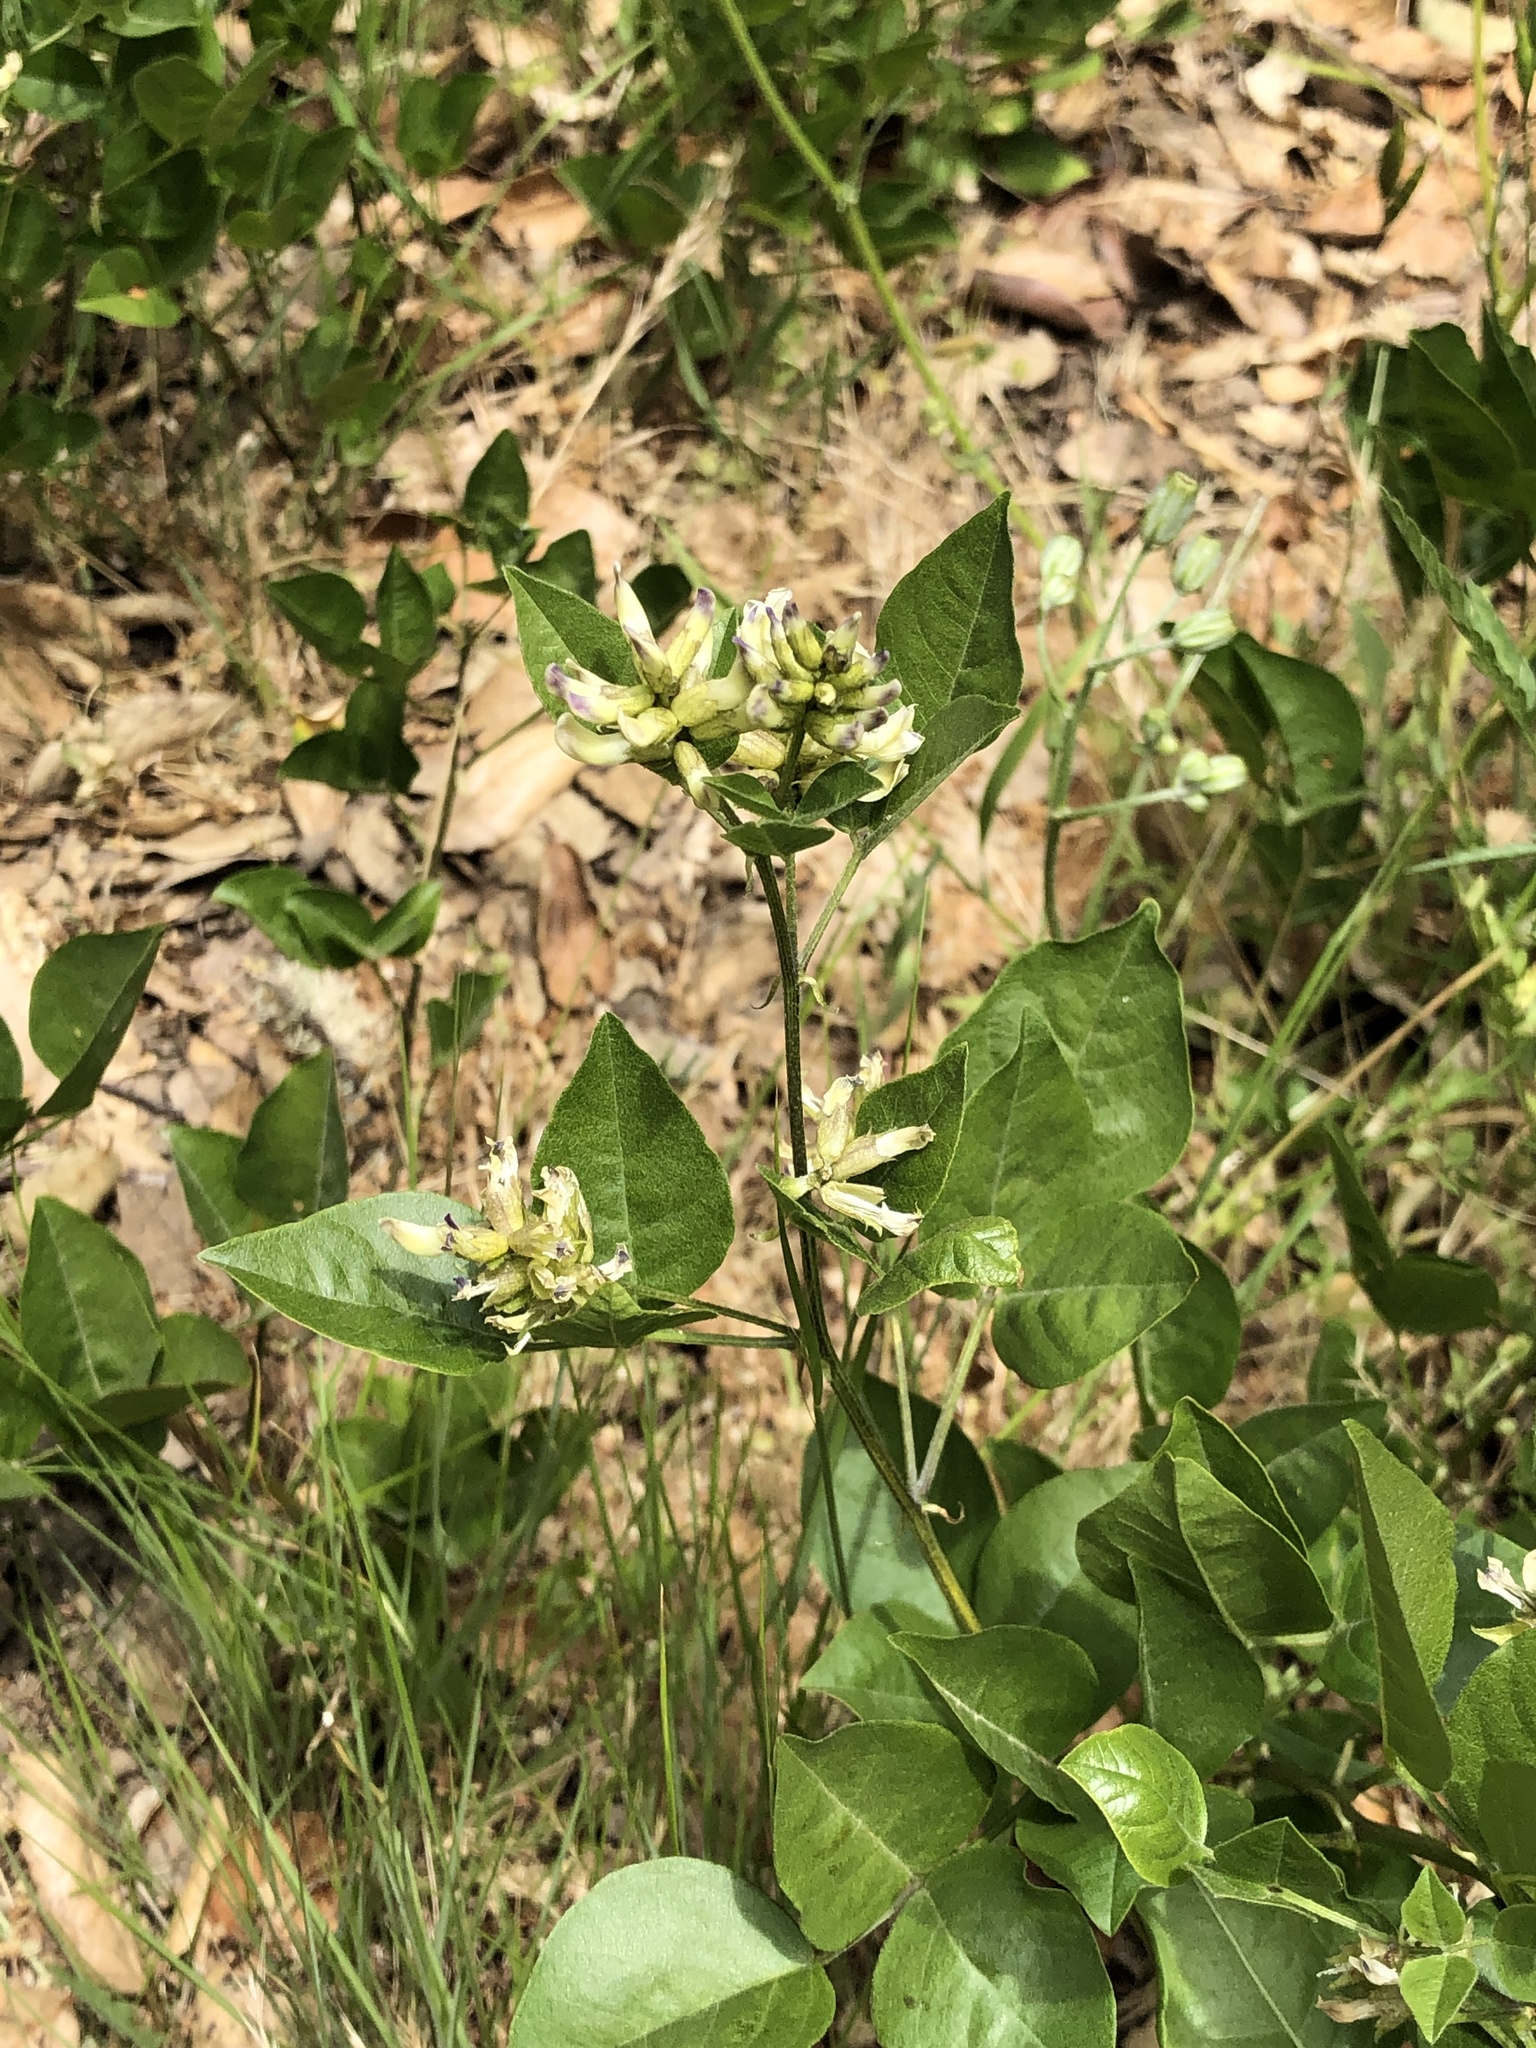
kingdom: Plantae
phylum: Tracheophyta
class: Magnoliopsida
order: Fabales
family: Fabaceae
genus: Rupertia
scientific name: Rupertia physodes
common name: California-tea
